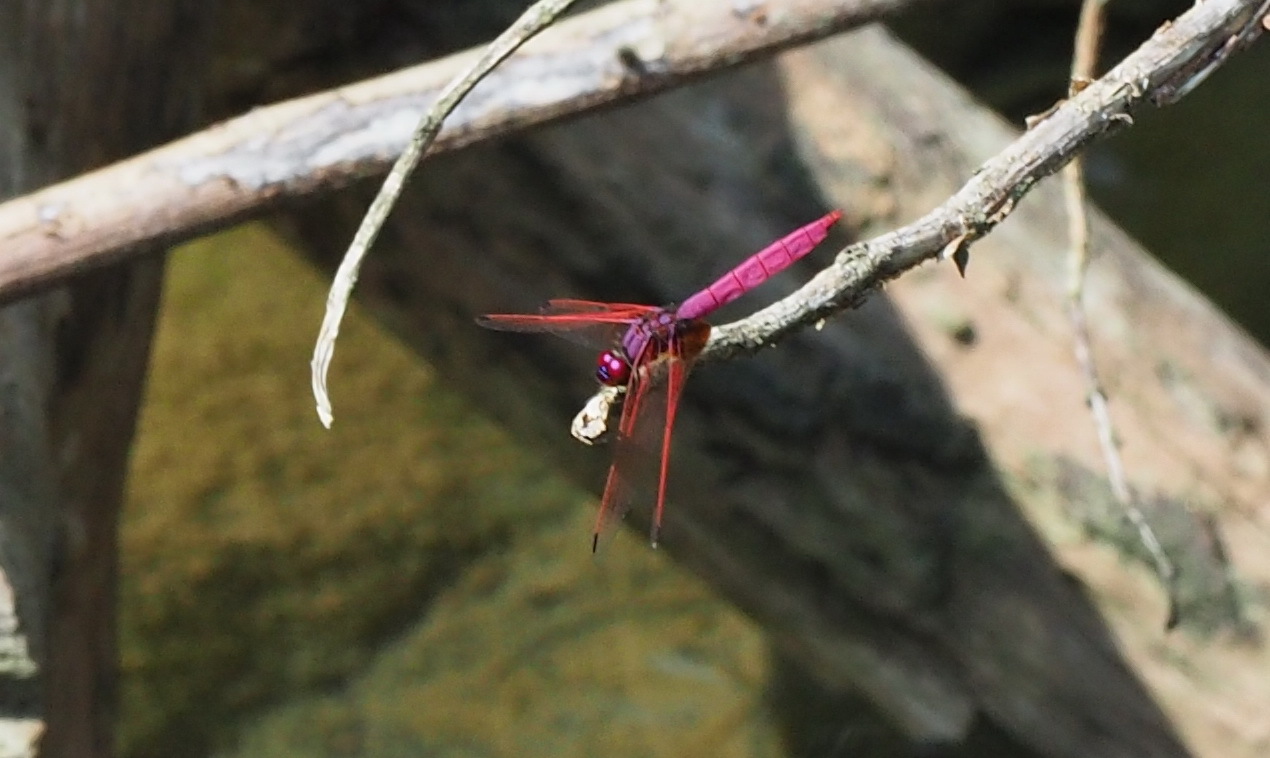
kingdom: Animalia
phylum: Arthropoda
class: Insecta
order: Odonata
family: Libellulidae
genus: Trithemis
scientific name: Trithemis aurora
